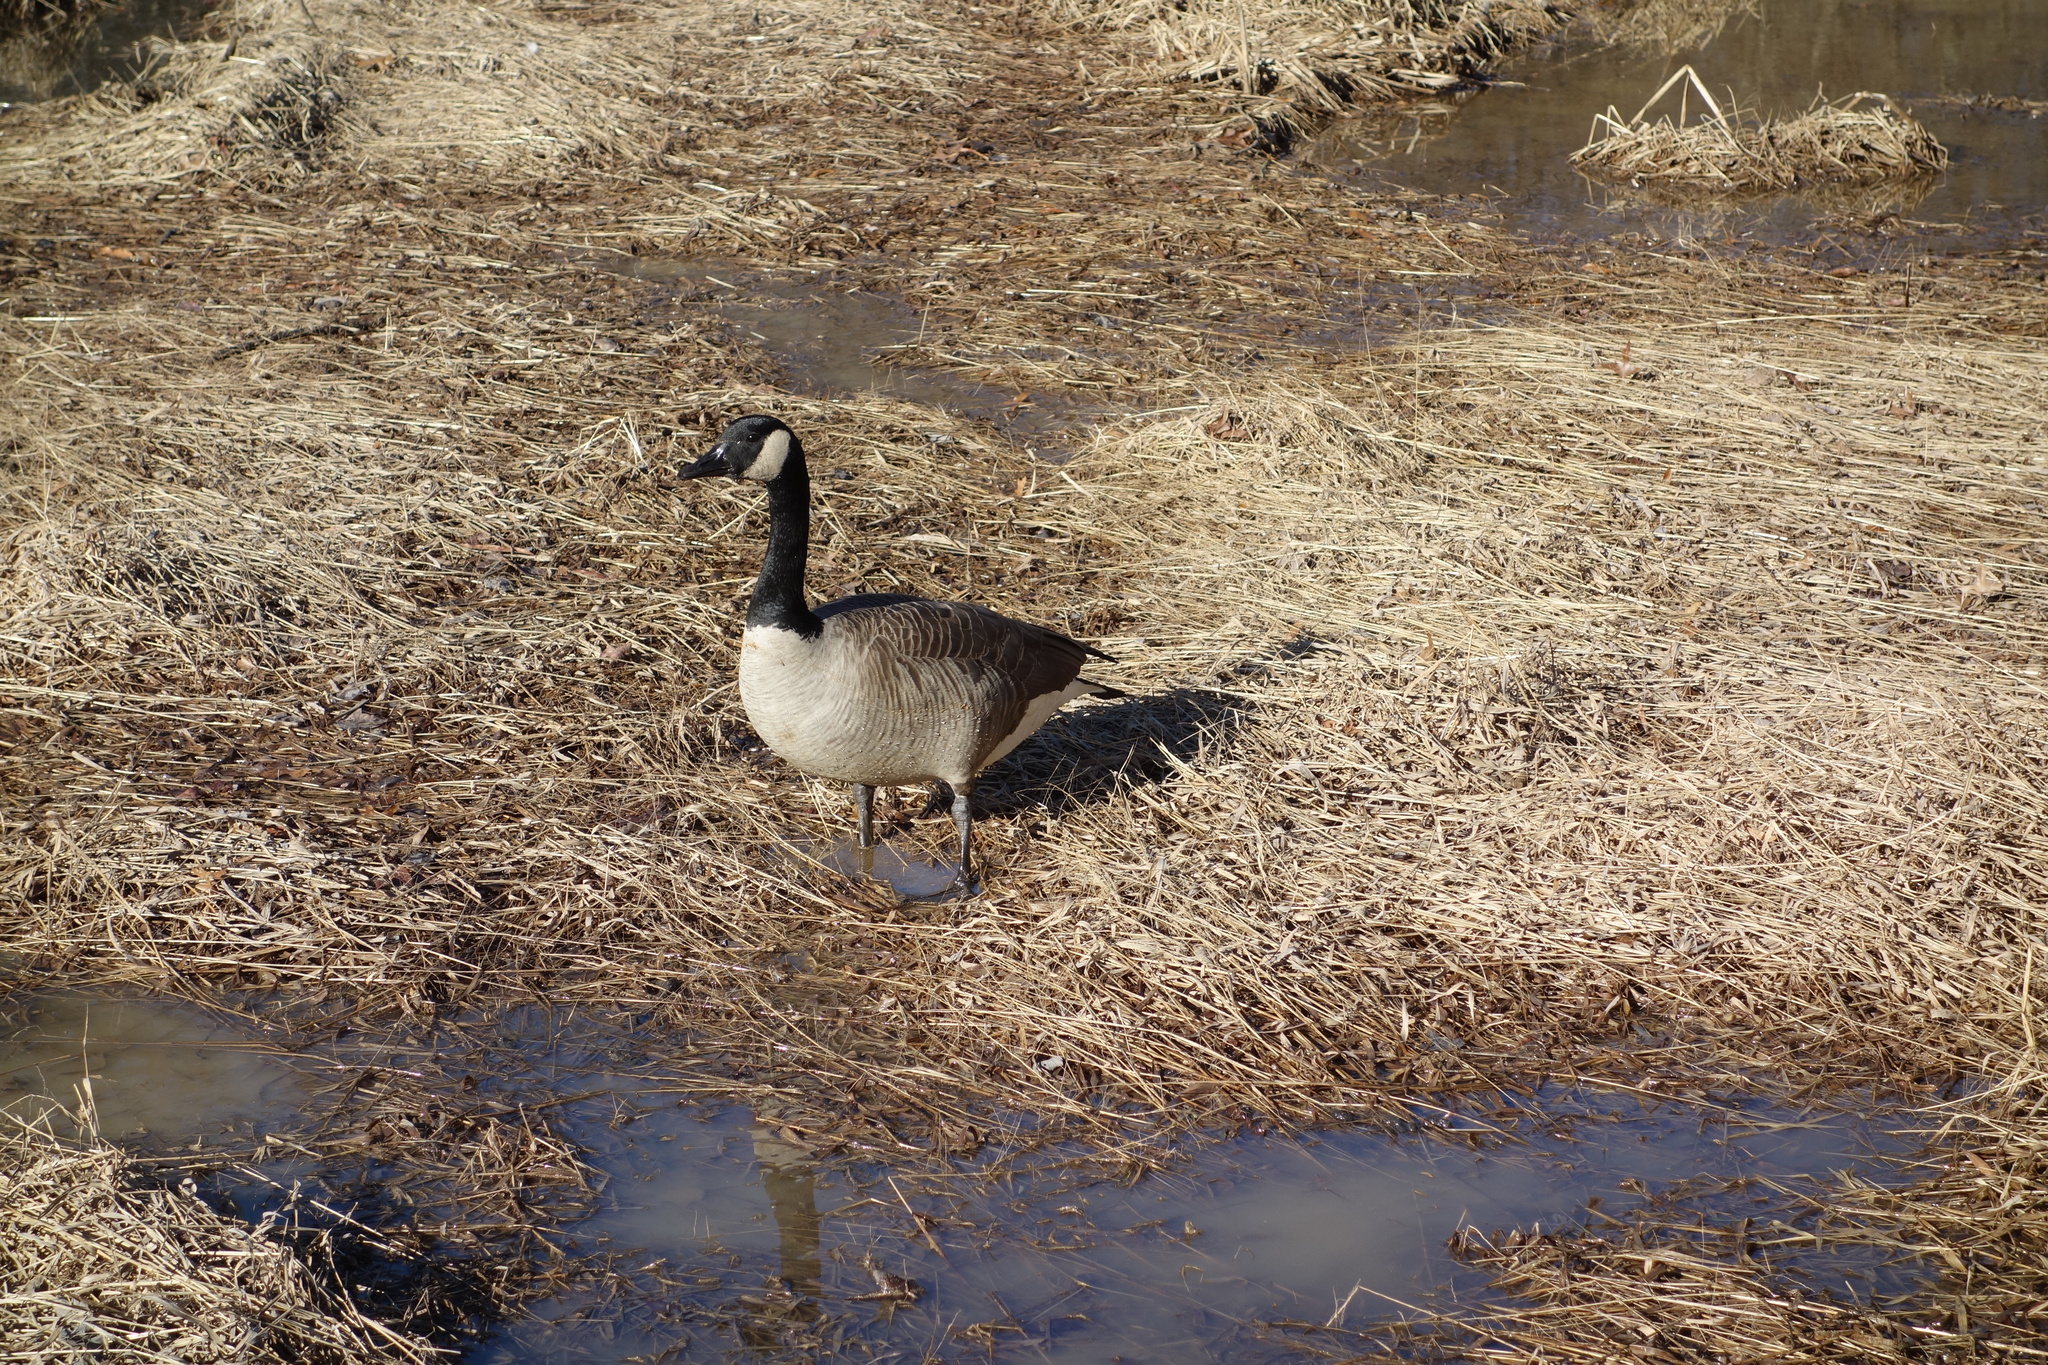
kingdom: Animalia
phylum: Chordata
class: Aves
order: Anseriformes
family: Anatidae
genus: Branta
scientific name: Branta canadensis
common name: Canada goose
